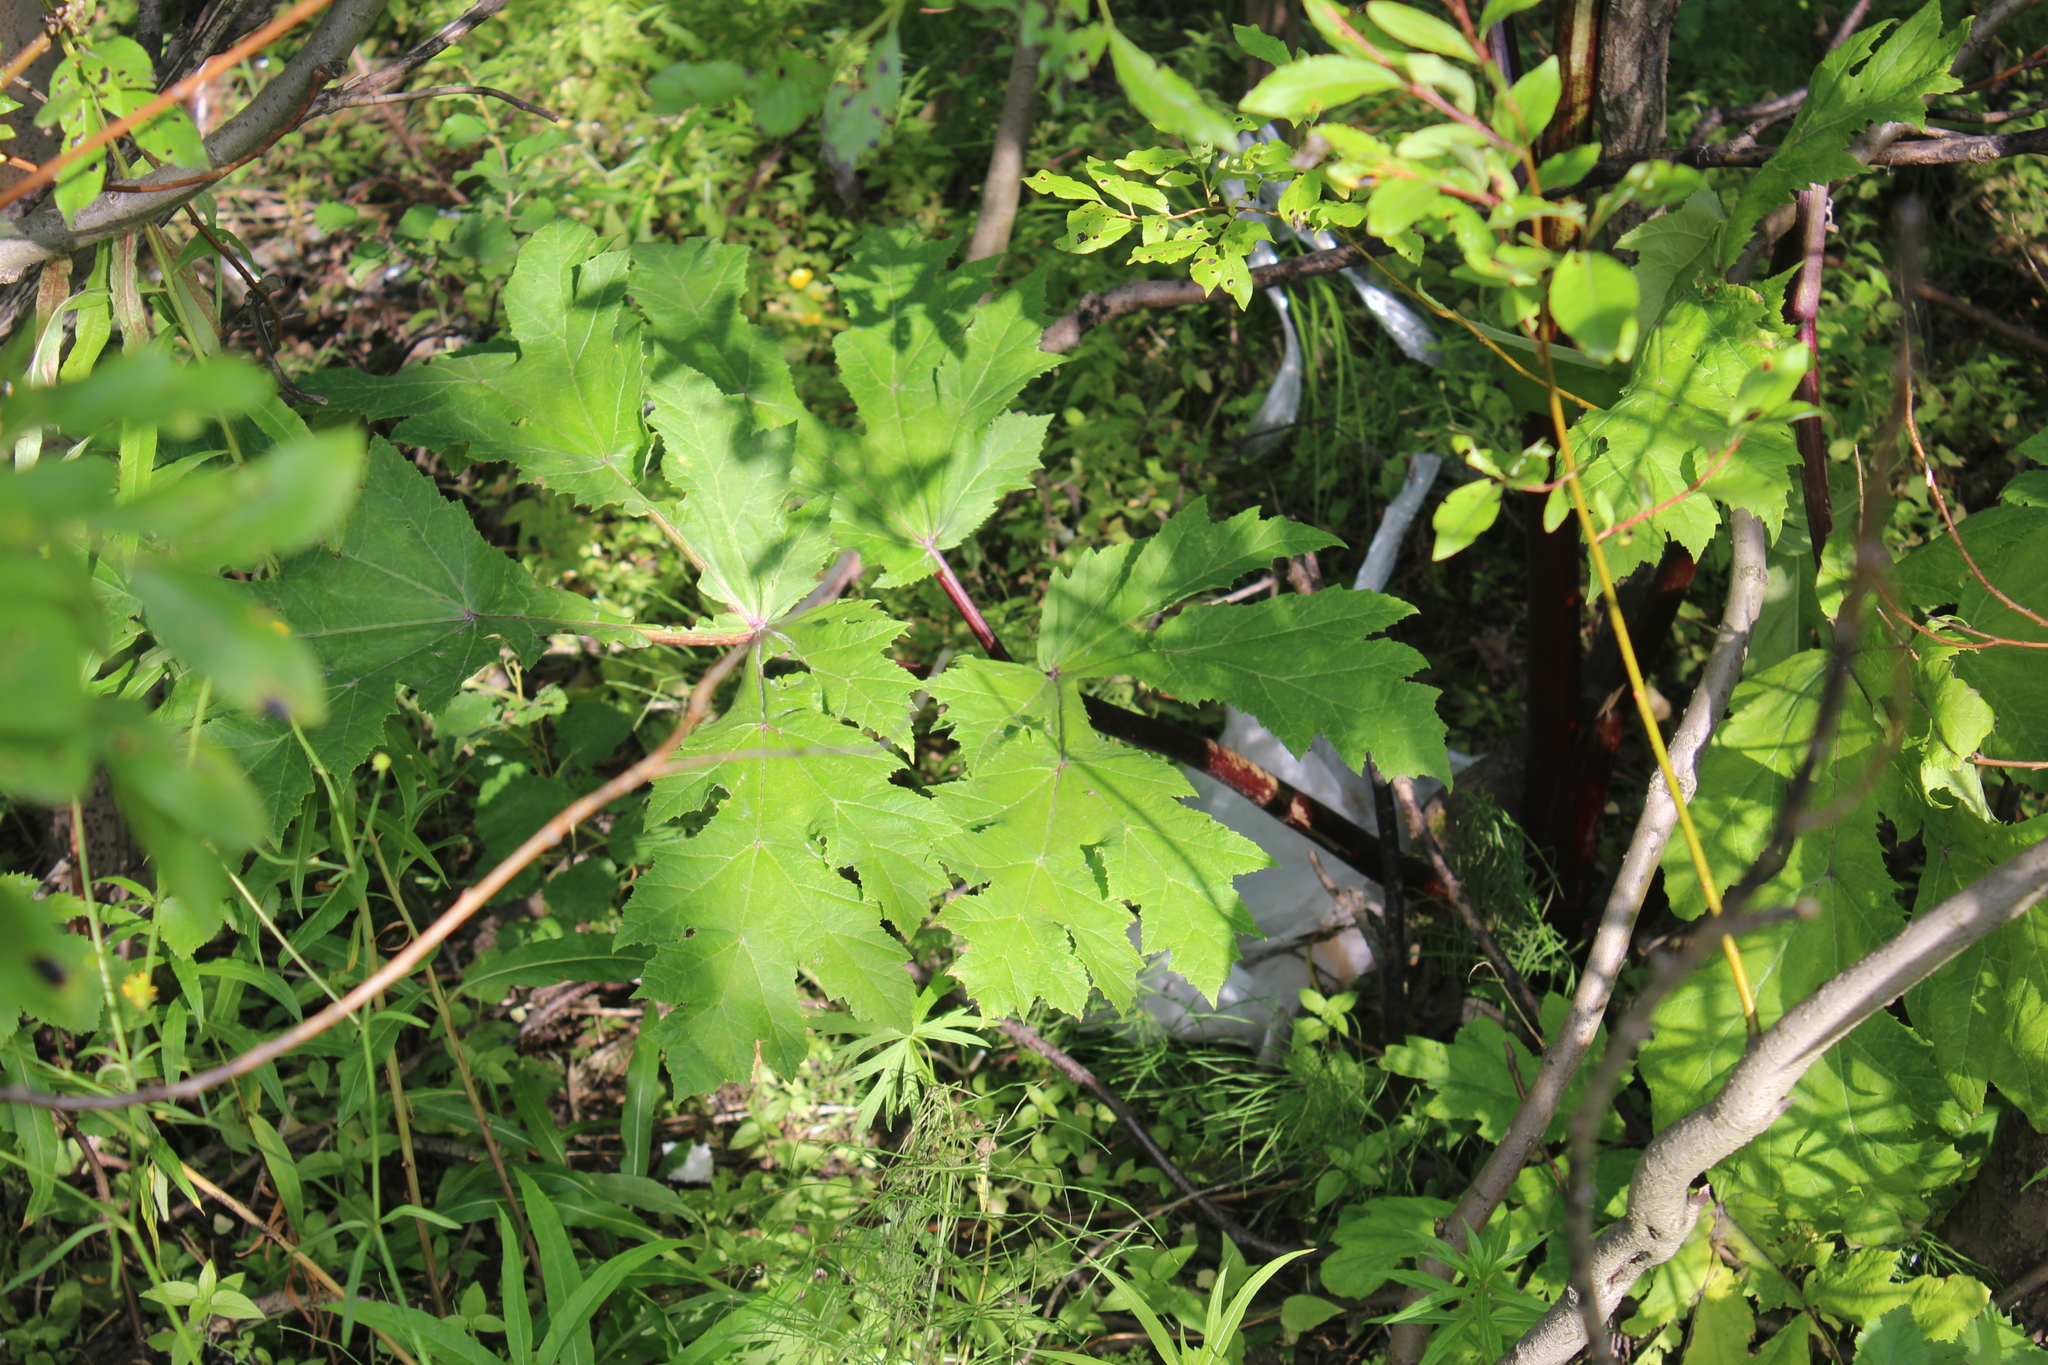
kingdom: Plantae
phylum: Tracheophyta
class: Magnoliopsida
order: Apiales
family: Apiaceae
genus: Heracleum
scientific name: Heracleum sosnowskyi
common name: Sosnowsky's hogweed
